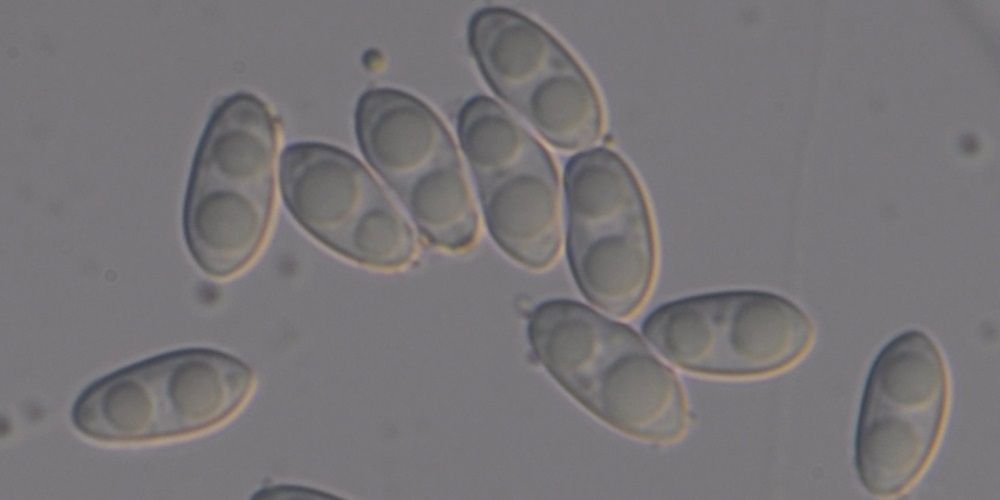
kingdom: Fungi
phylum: Ascomycota
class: Sordariomycetes
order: Hypocreales
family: Stachybotryaceae
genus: Achroiostachys
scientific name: Achroiostachys aurantispora
